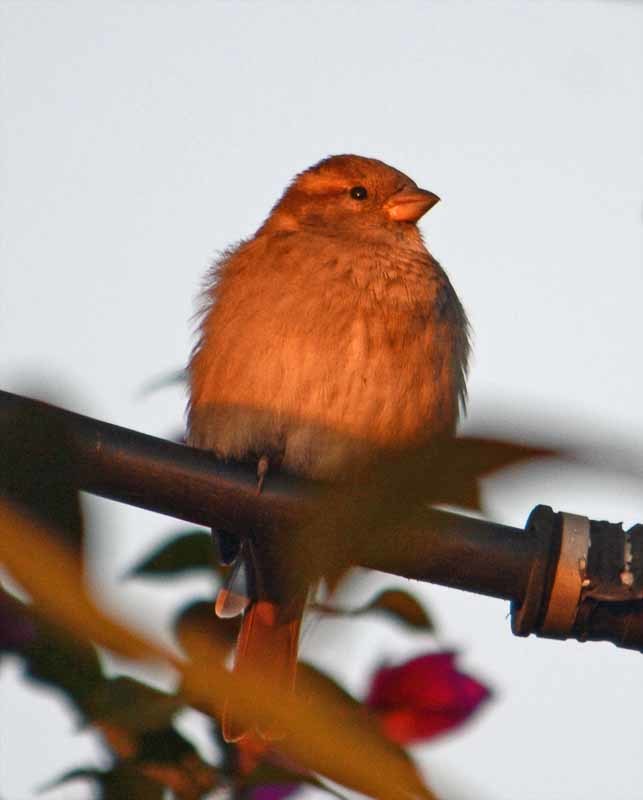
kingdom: Animalia
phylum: Chordata
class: Aves
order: Passeriformes
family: Passeridae
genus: Passer
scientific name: Passer domesticus
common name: House sparrow
